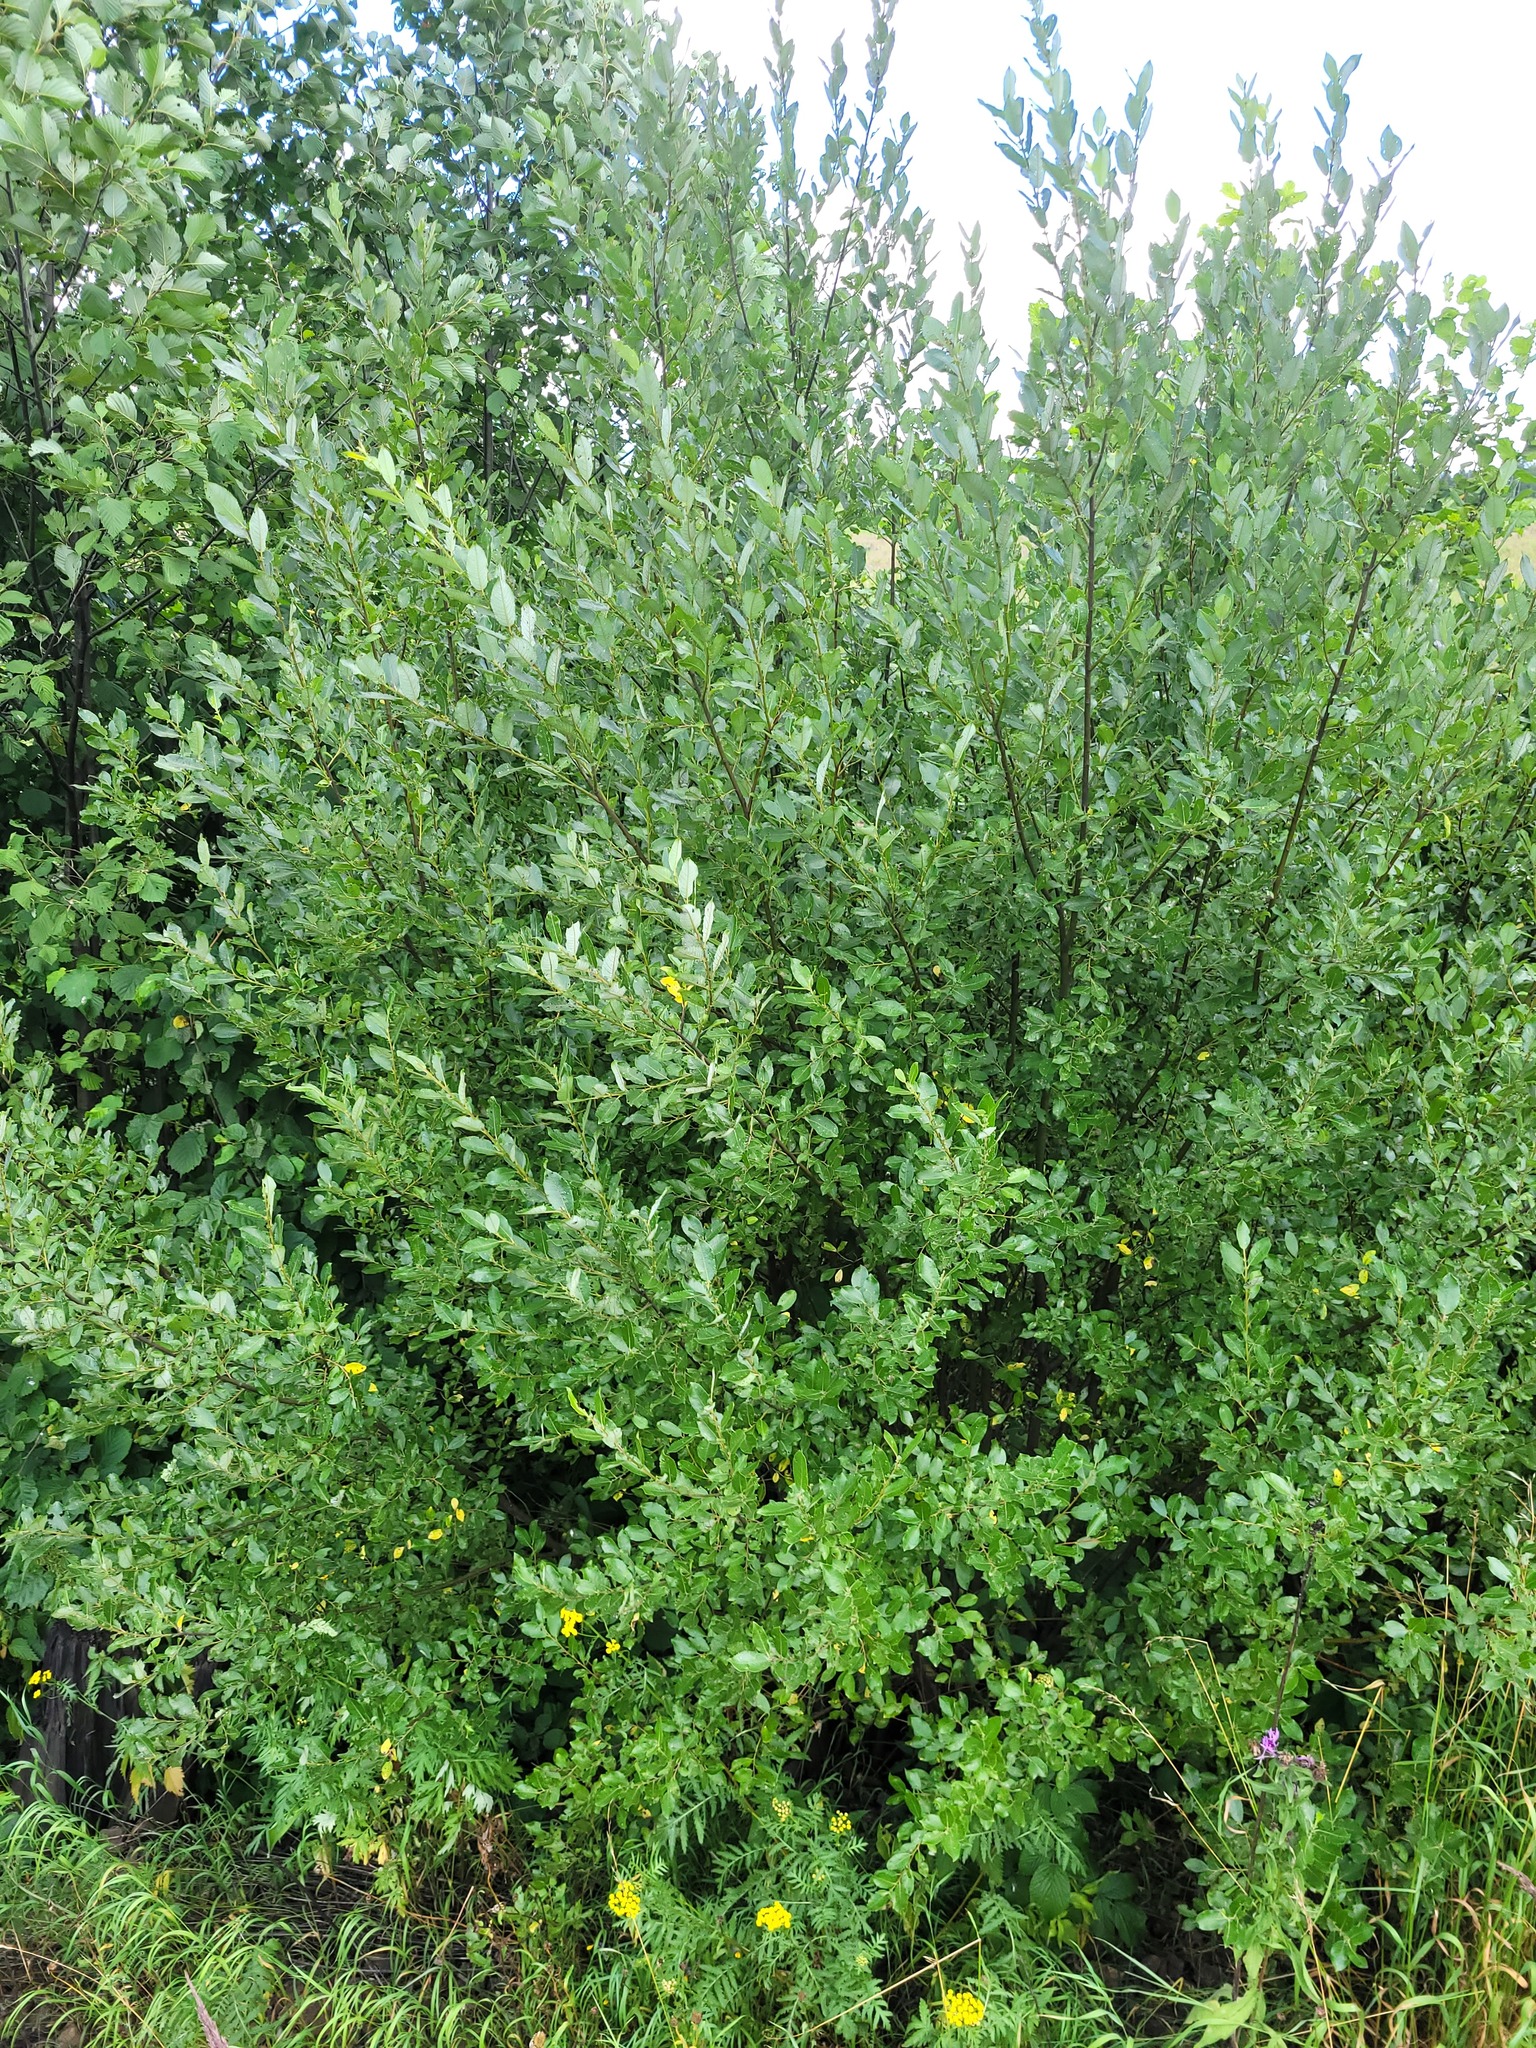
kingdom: Plantae
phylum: Tracheophyta
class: Magnoliopsida
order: Malpighiales
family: Salicaceae
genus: Salix
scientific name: Salix myrsinifolia
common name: Dark-leaved willow
